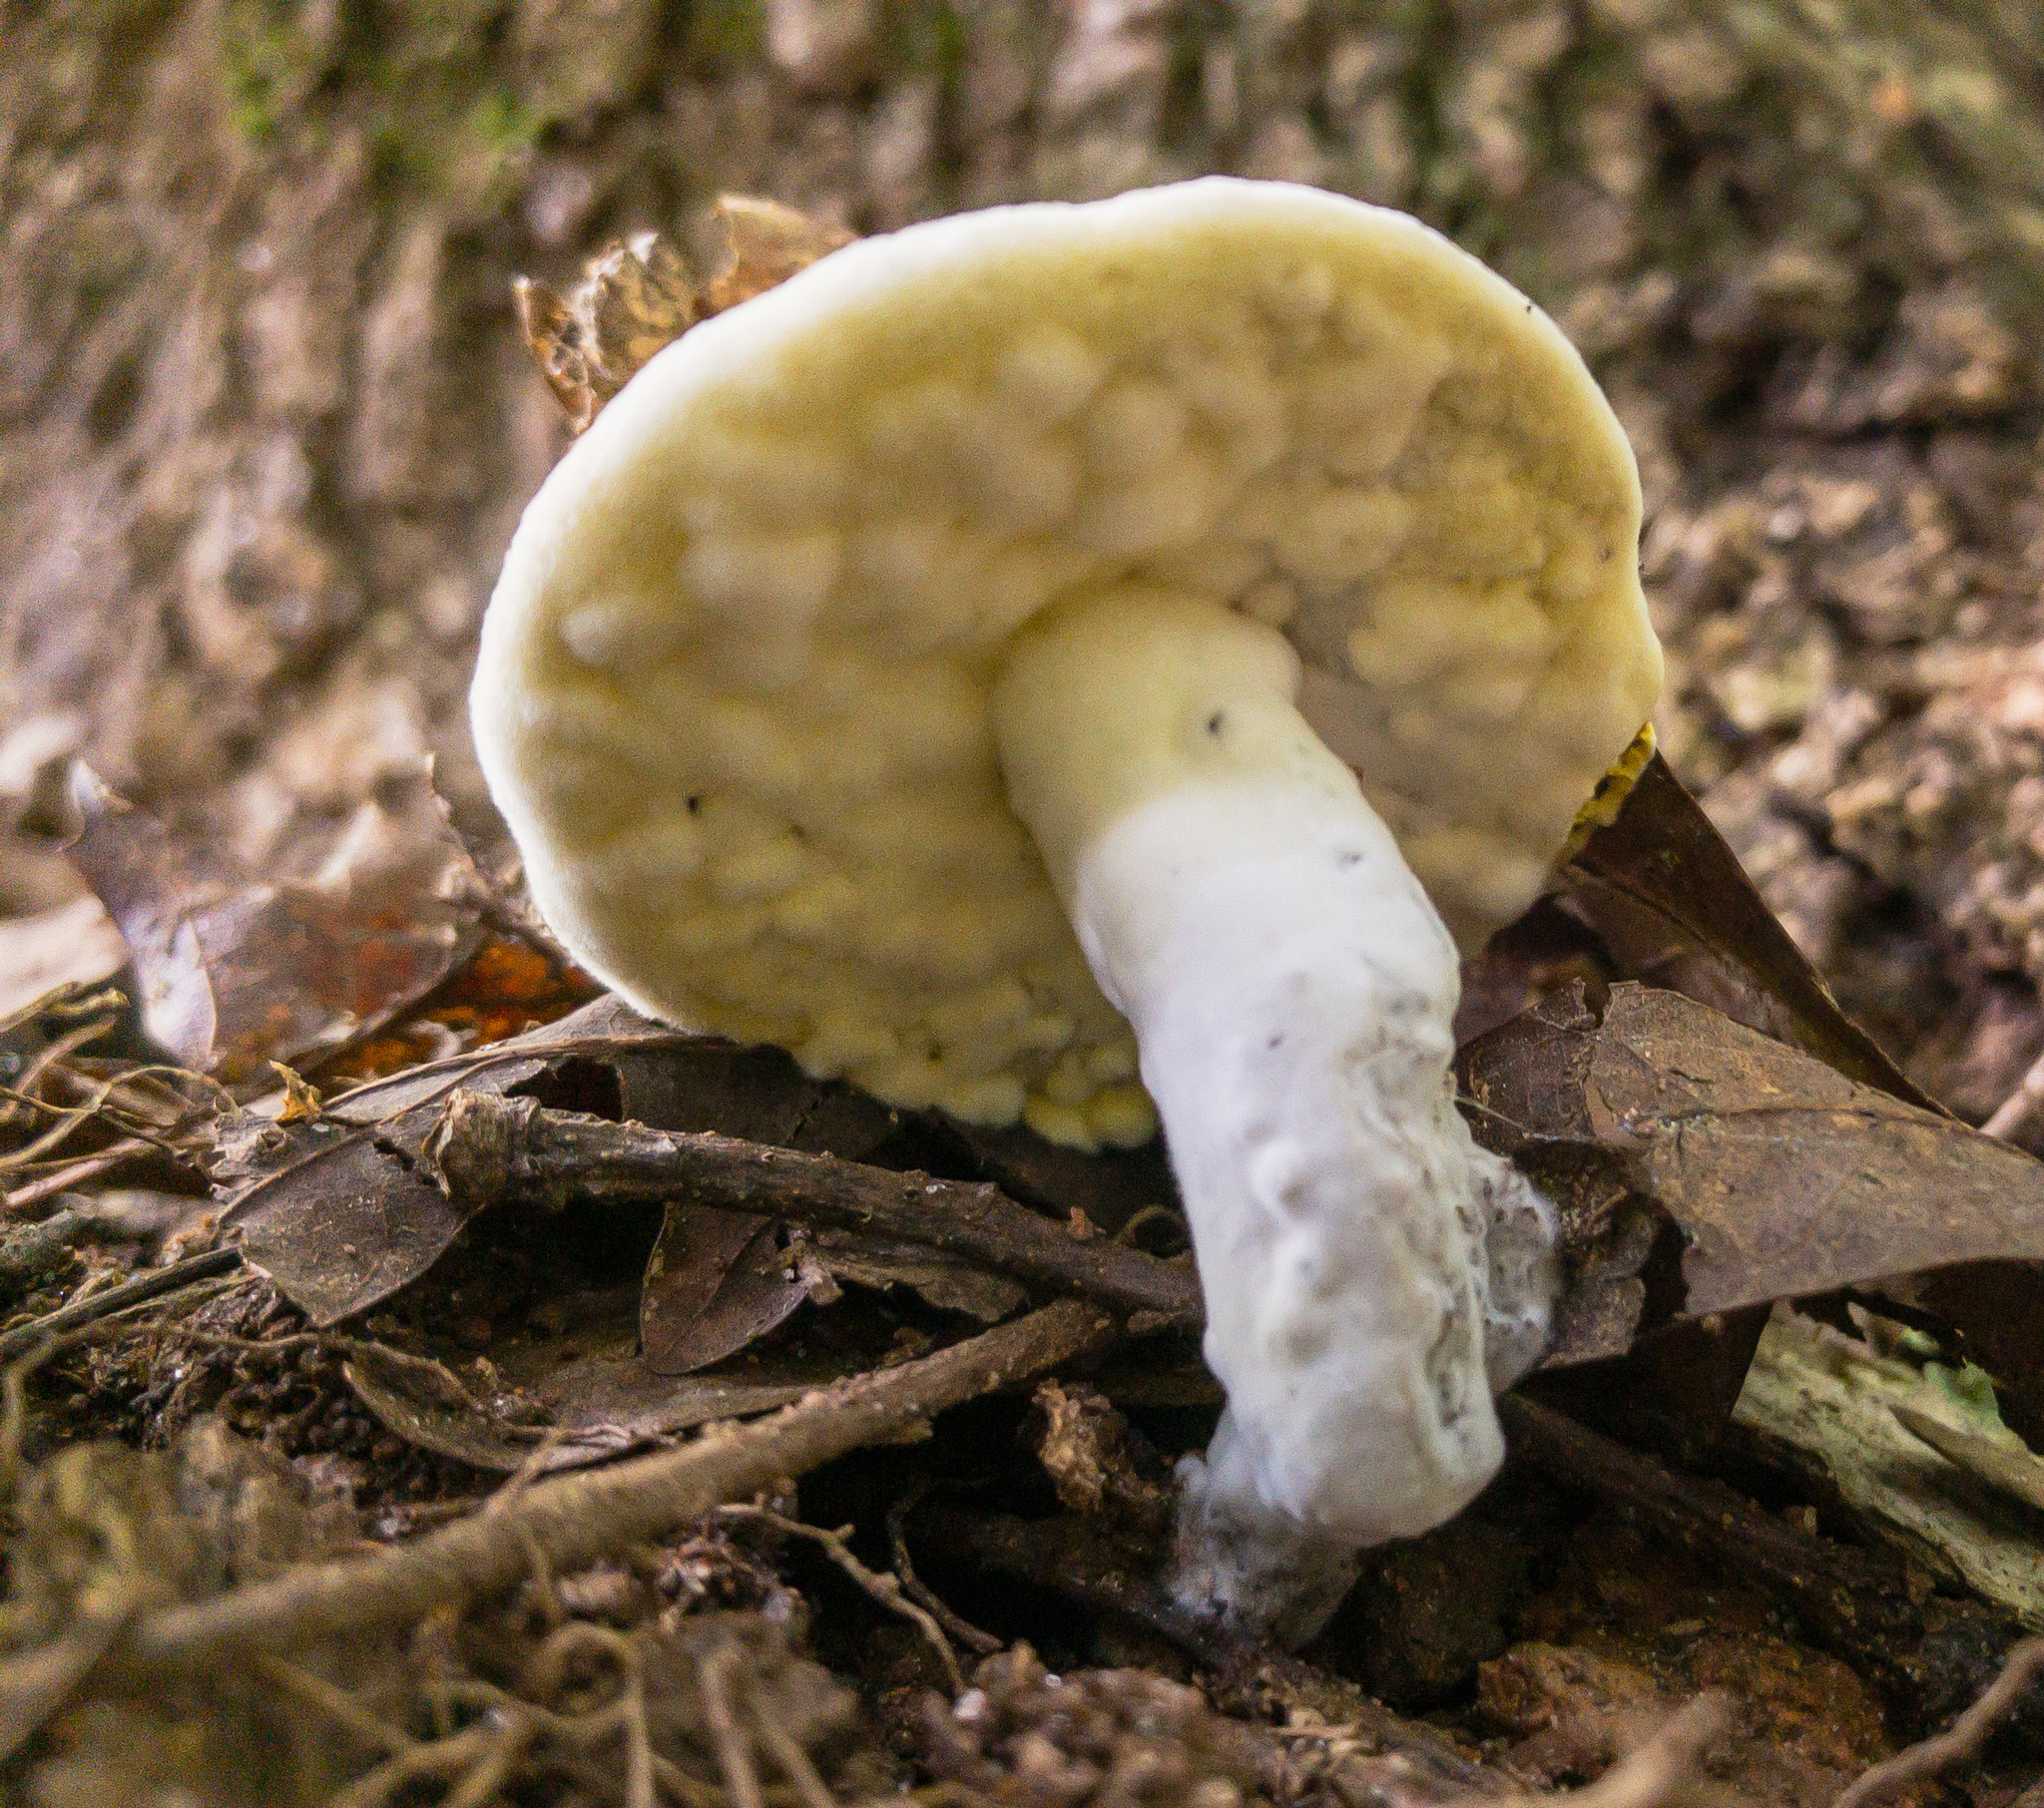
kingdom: Fungi
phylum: Ascomycota
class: Sordariomycetes
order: Hypocreales
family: Hypocreaceae
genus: Hypomyces
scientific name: Hypomyces chrysospermus
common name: Bolete mould
